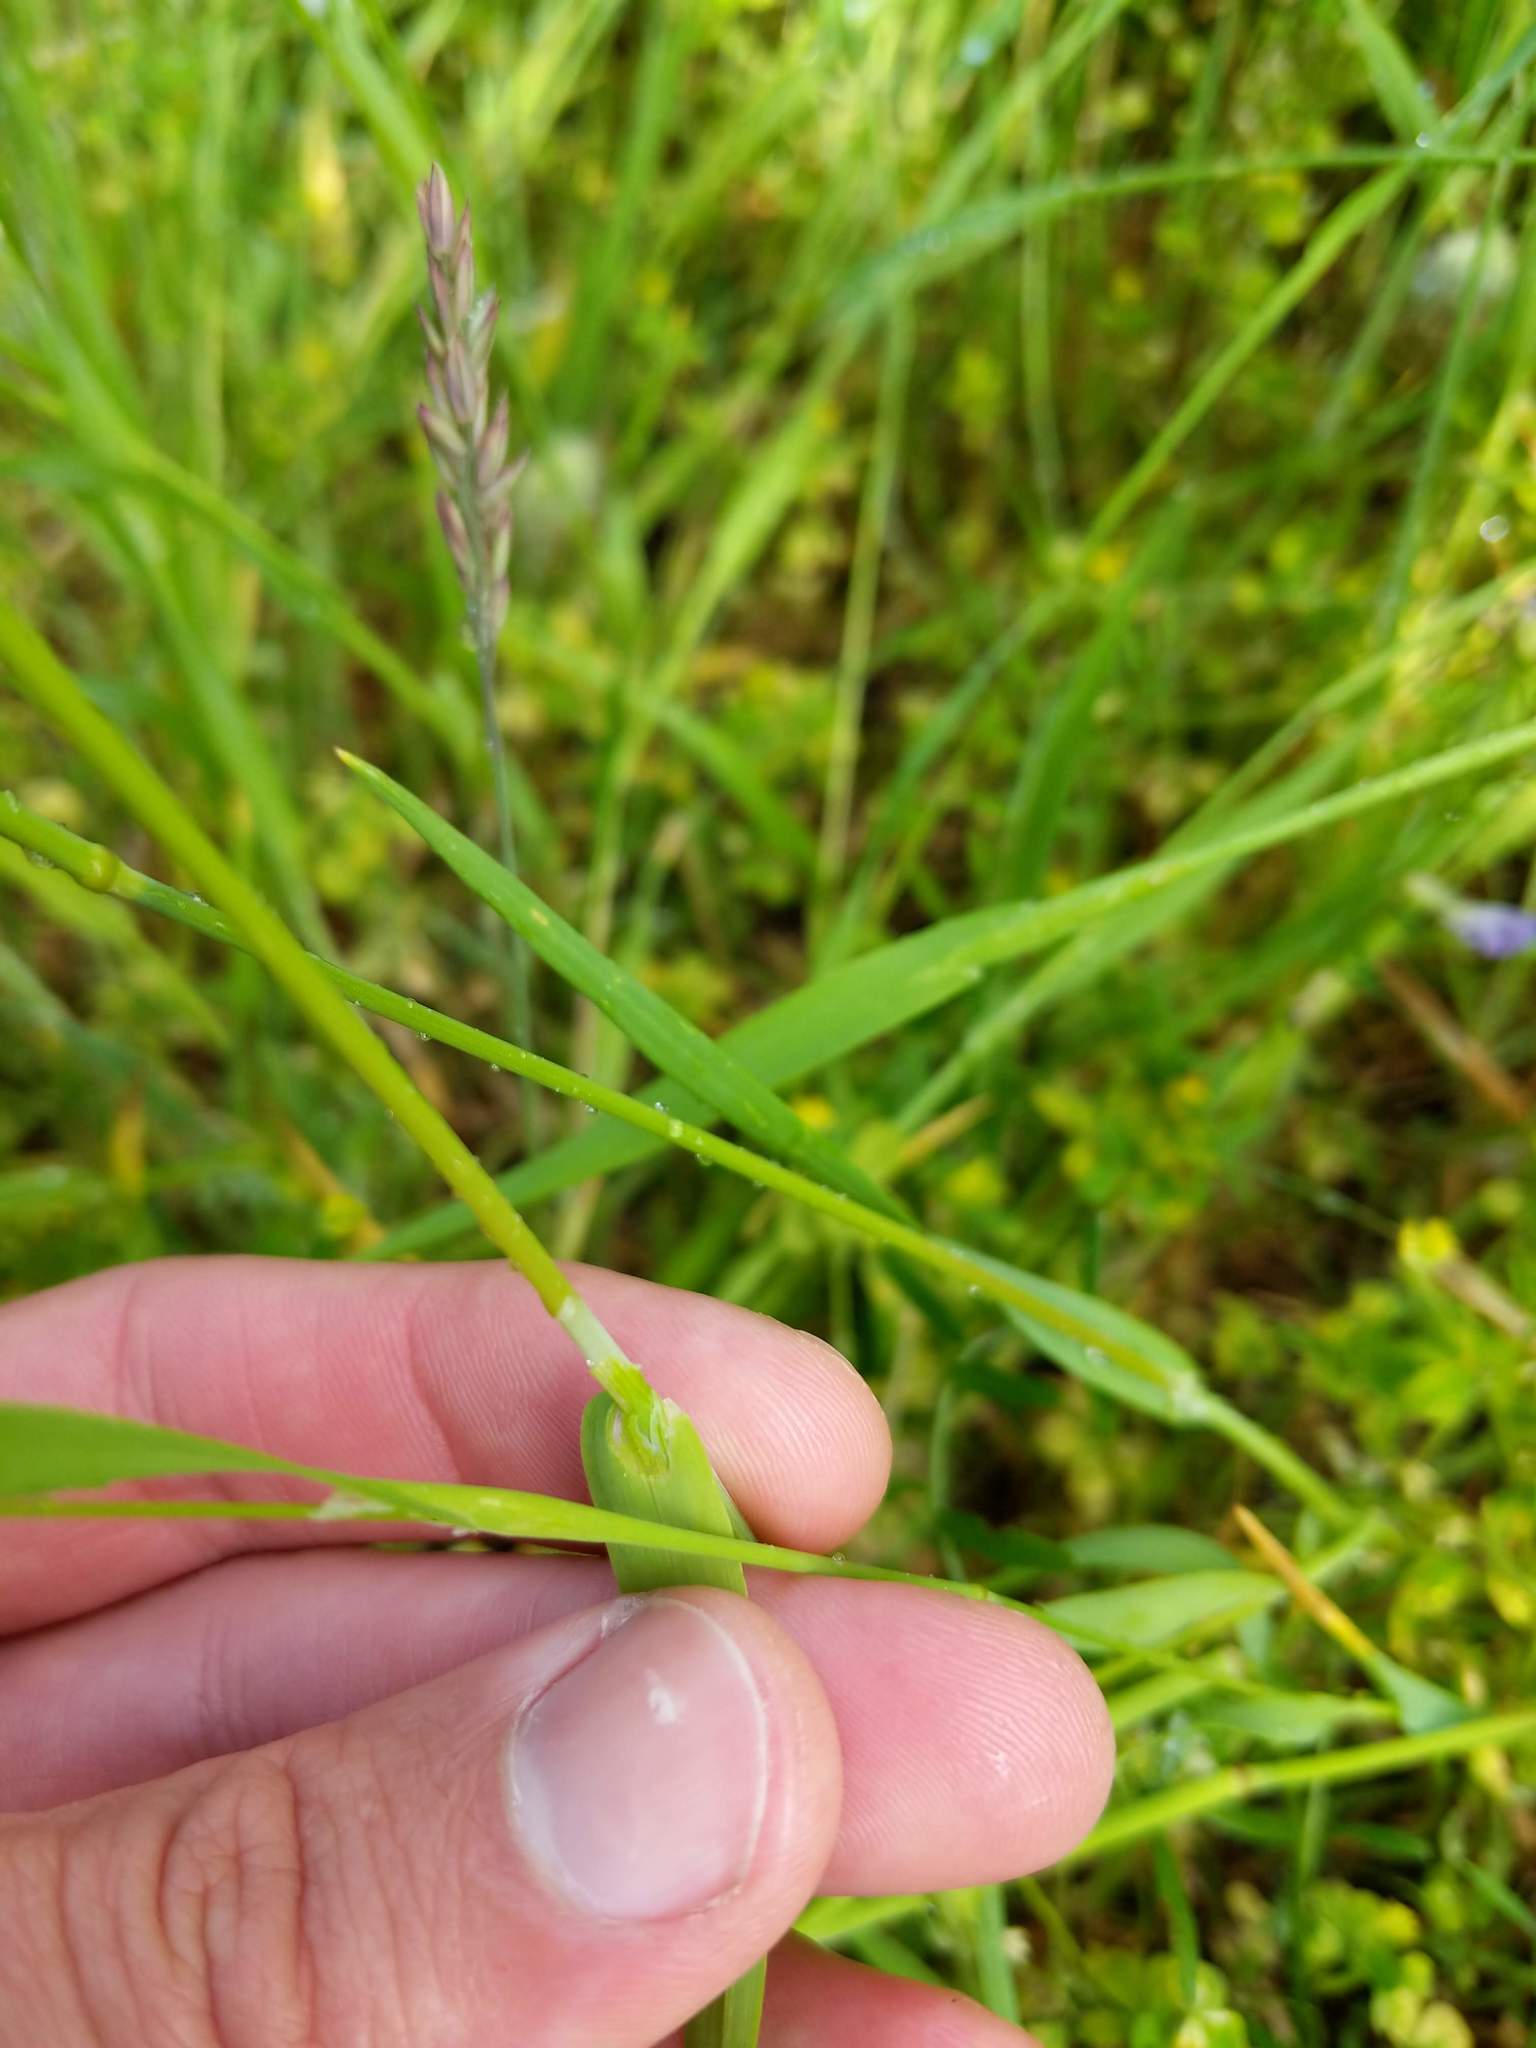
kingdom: Plantae
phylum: Tracheophyta
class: Liliopsida
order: Poales
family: Poaceae
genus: Cynosurus
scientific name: Cynosurus echinatus
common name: Rough dog's-tail
